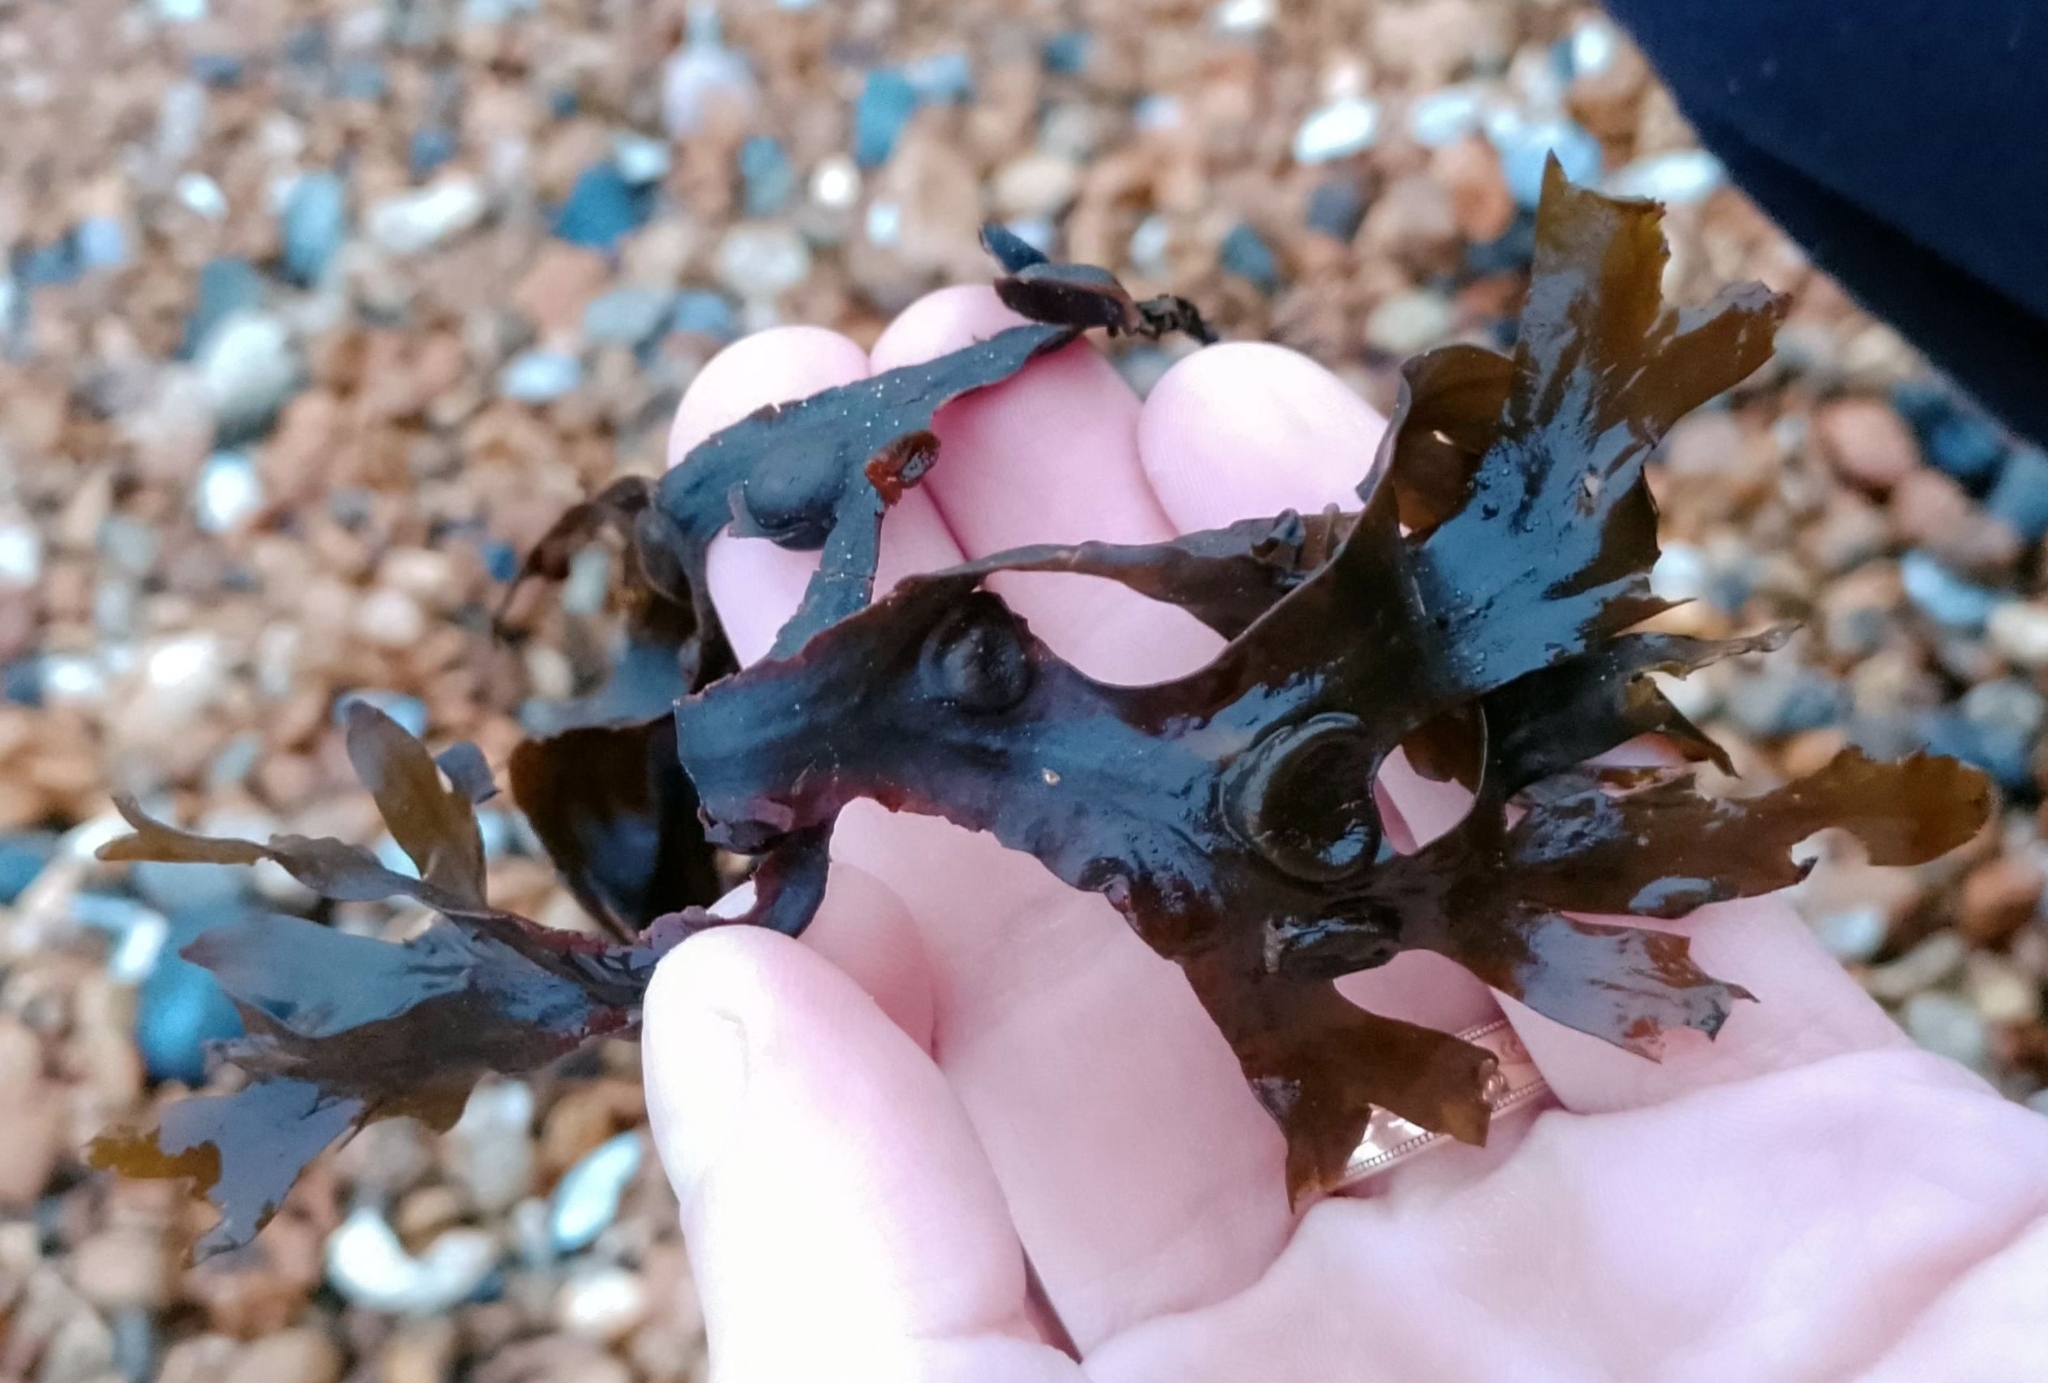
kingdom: Chromista
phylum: Ochrophyta
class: Phaeophyceae
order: Fucales
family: Fucaceae
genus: Fucus
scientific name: Fucus serratus
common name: Toothed wrack
